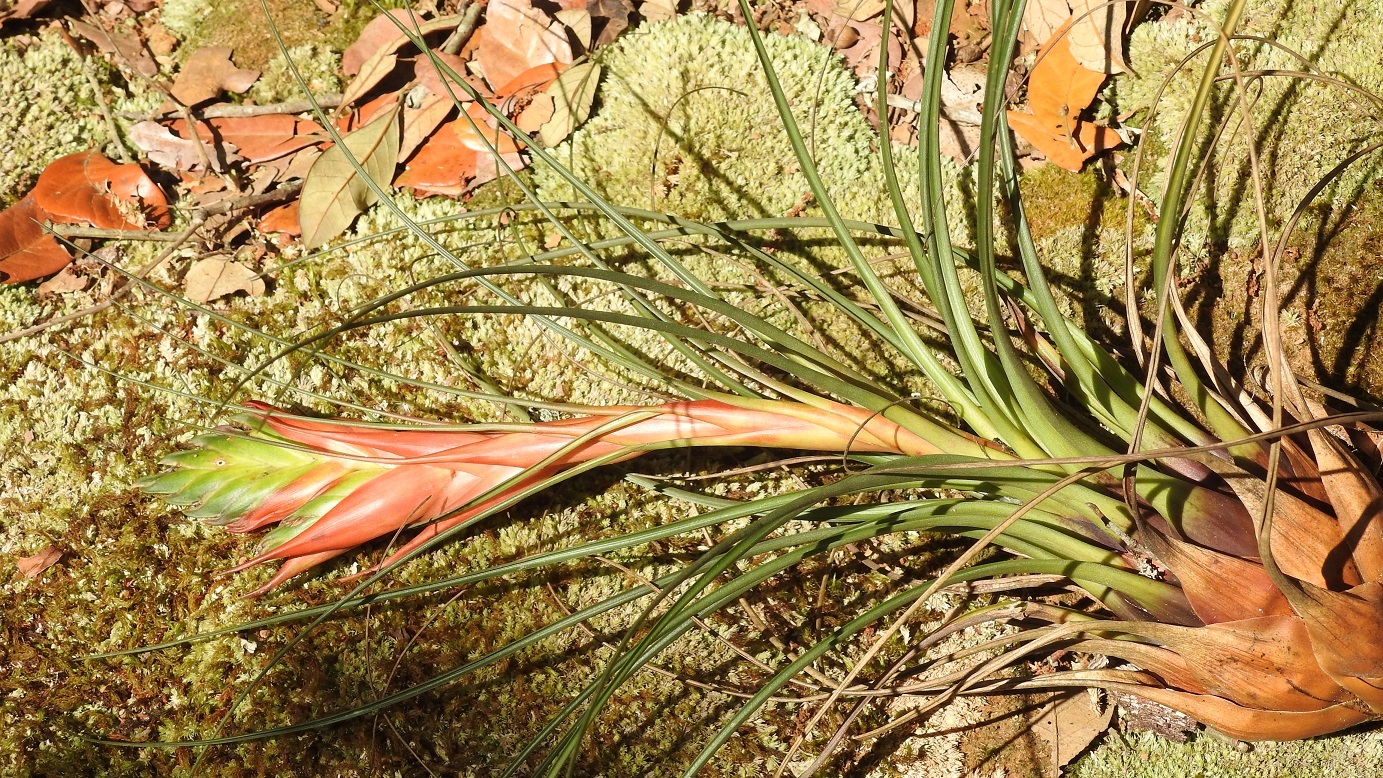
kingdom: Plantae
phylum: Tracheophyta
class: Liliopsida
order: Poales
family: Bromeliaceae
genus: Tillandsia
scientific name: Tillandsia punctulata
